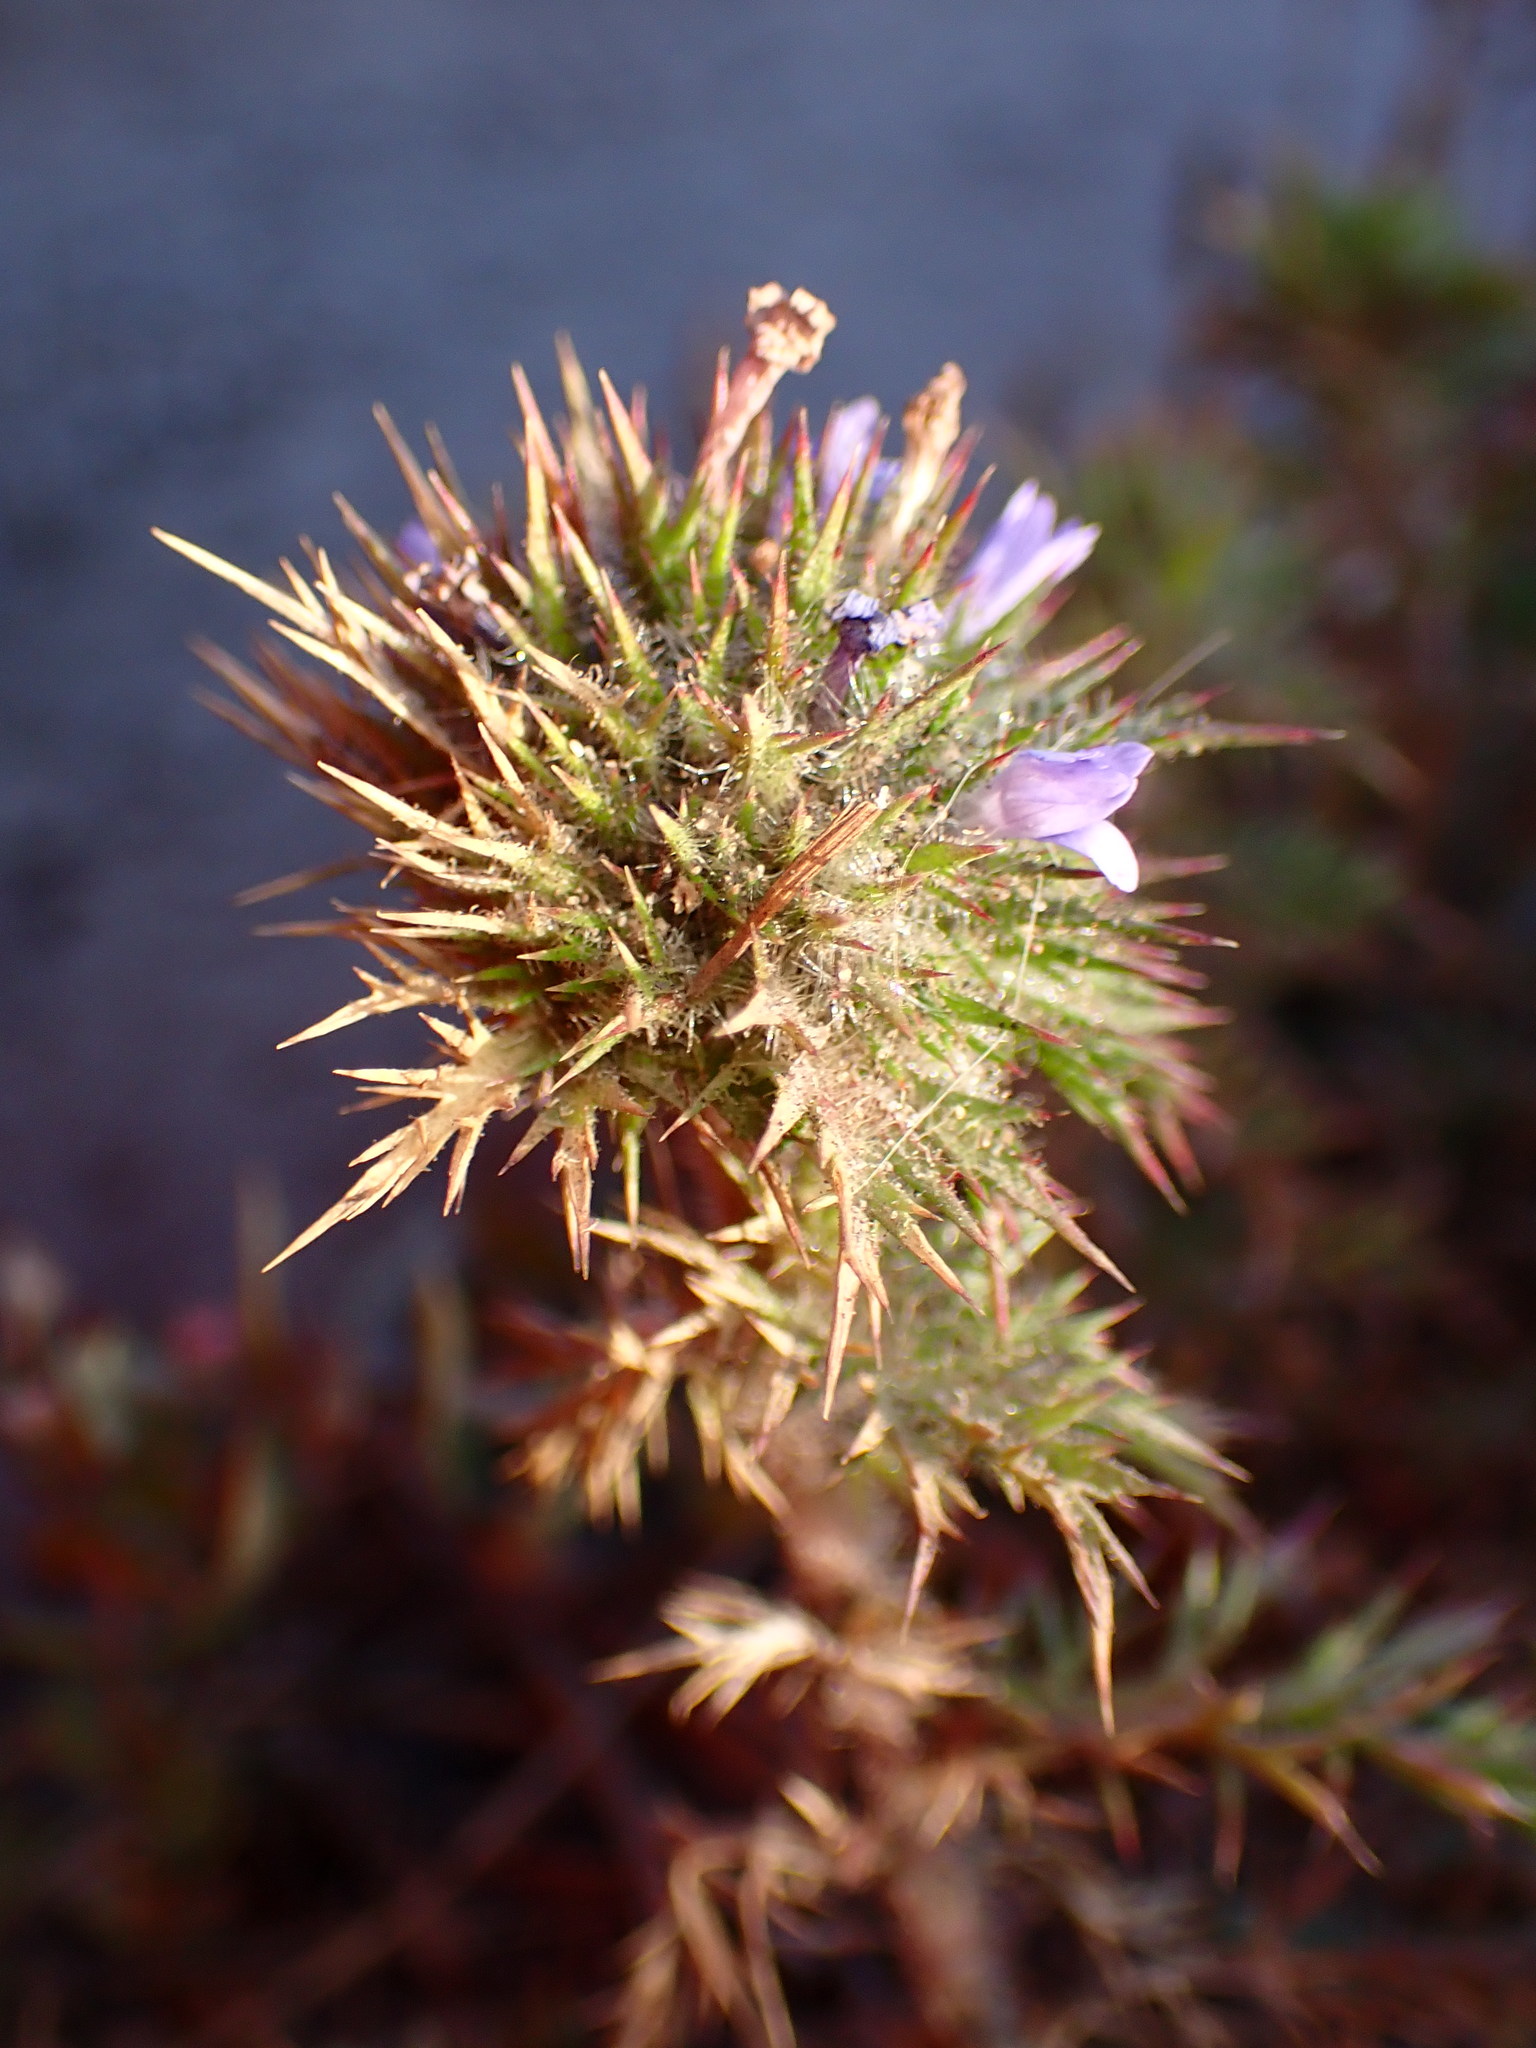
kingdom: Plantae
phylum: Tracheophyta
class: Magnoliopsida
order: Ericales
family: Polemoniaceae
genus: Navarretia
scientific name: Navarretia squarrosa
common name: Skunkweed
